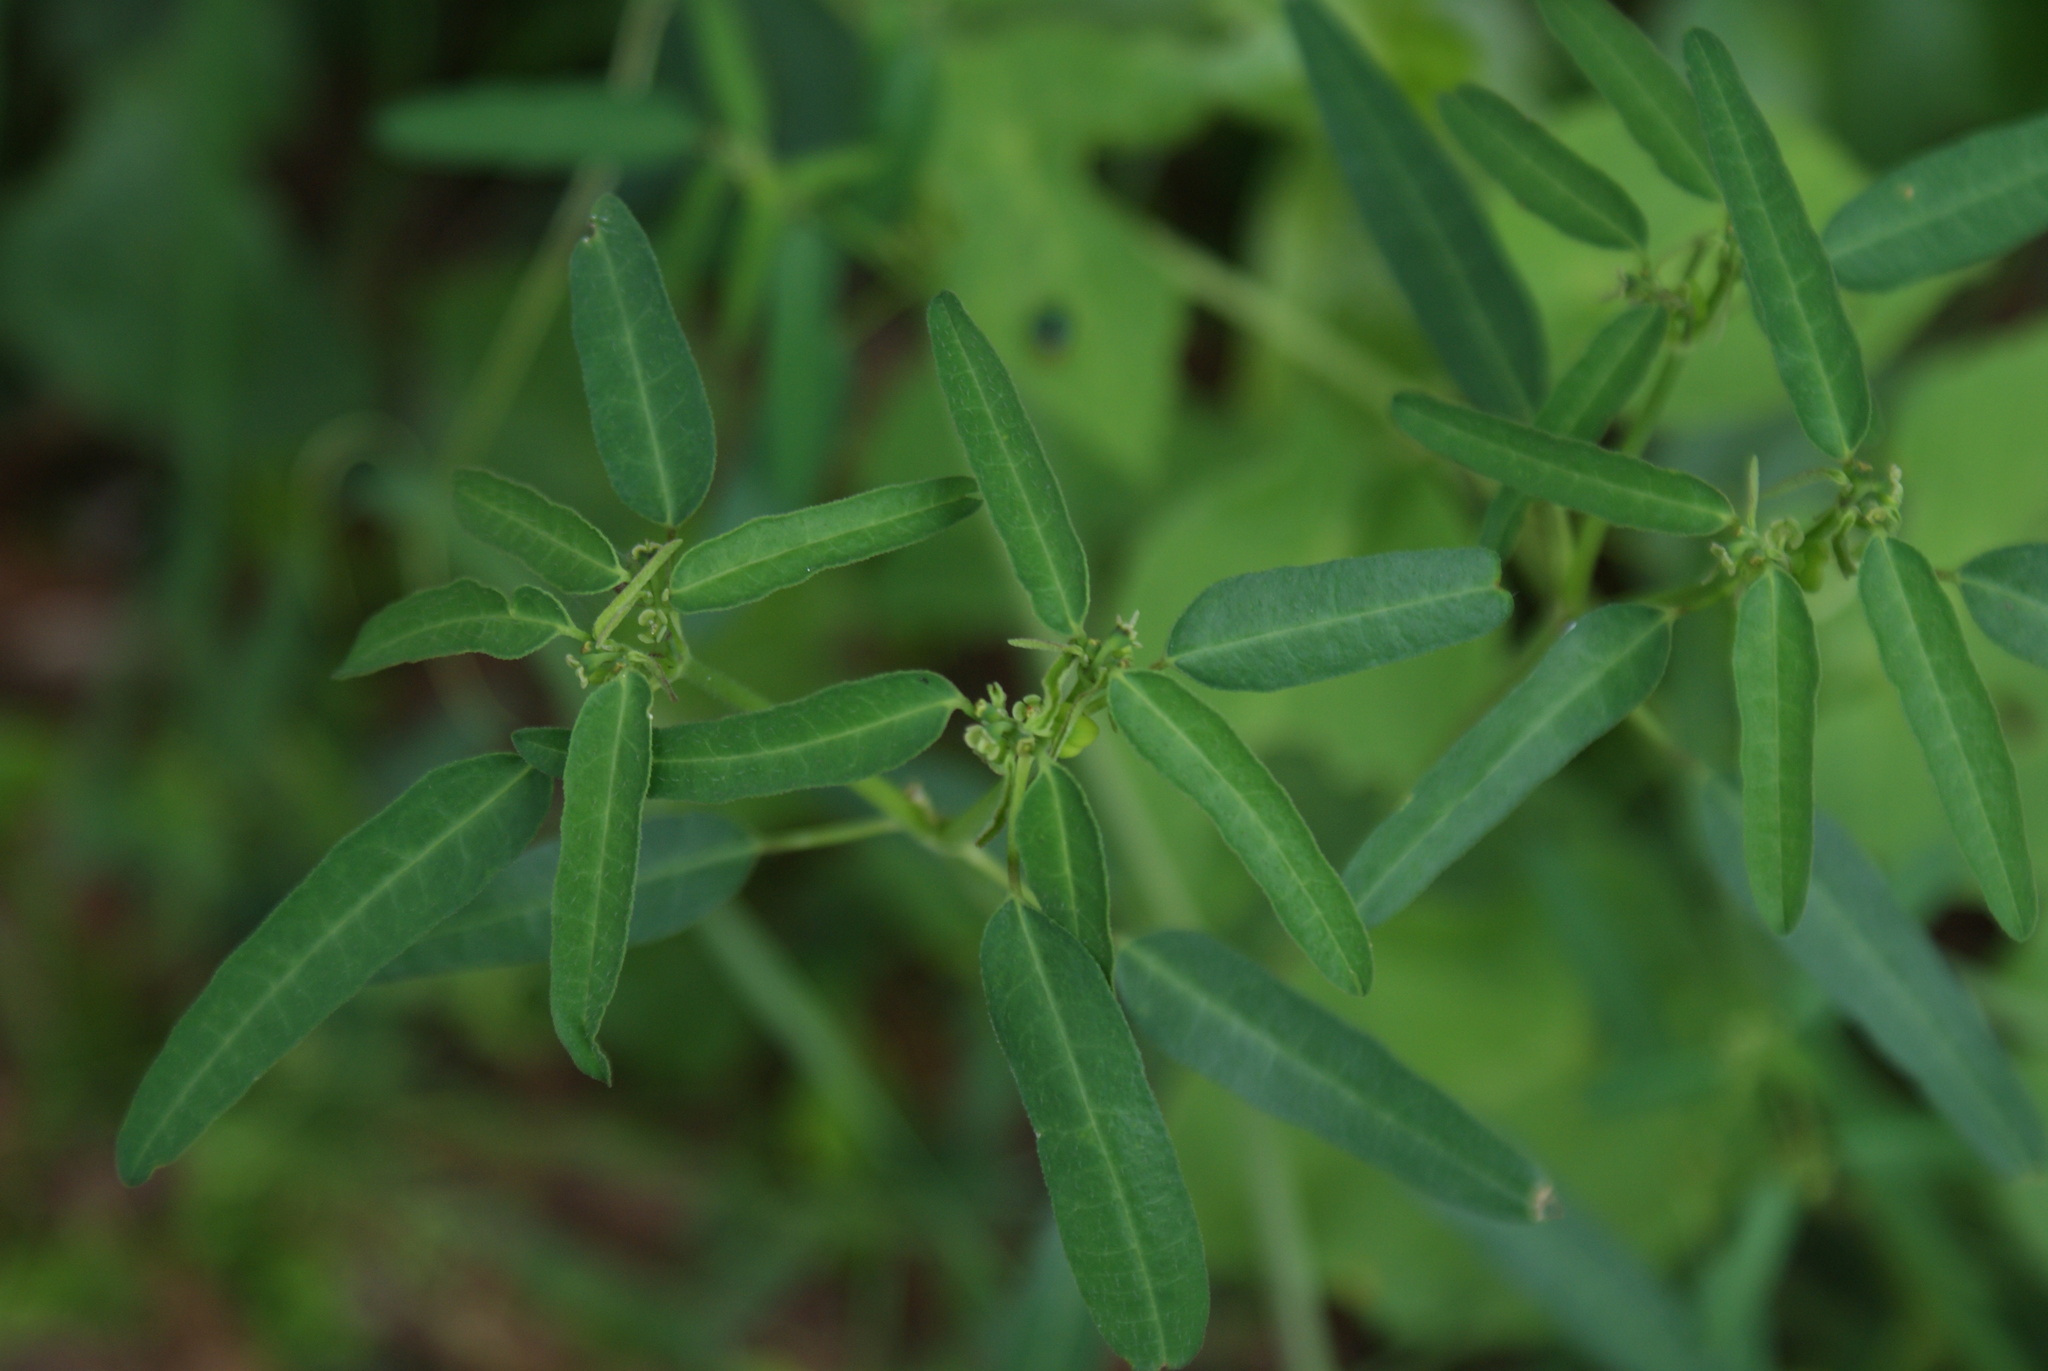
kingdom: Plantae
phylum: Tracheophyta
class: Magnoliopsida
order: Malpighiales
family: Euphorbiaceae
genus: Euphorbia
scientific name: Euphorbia macropus
